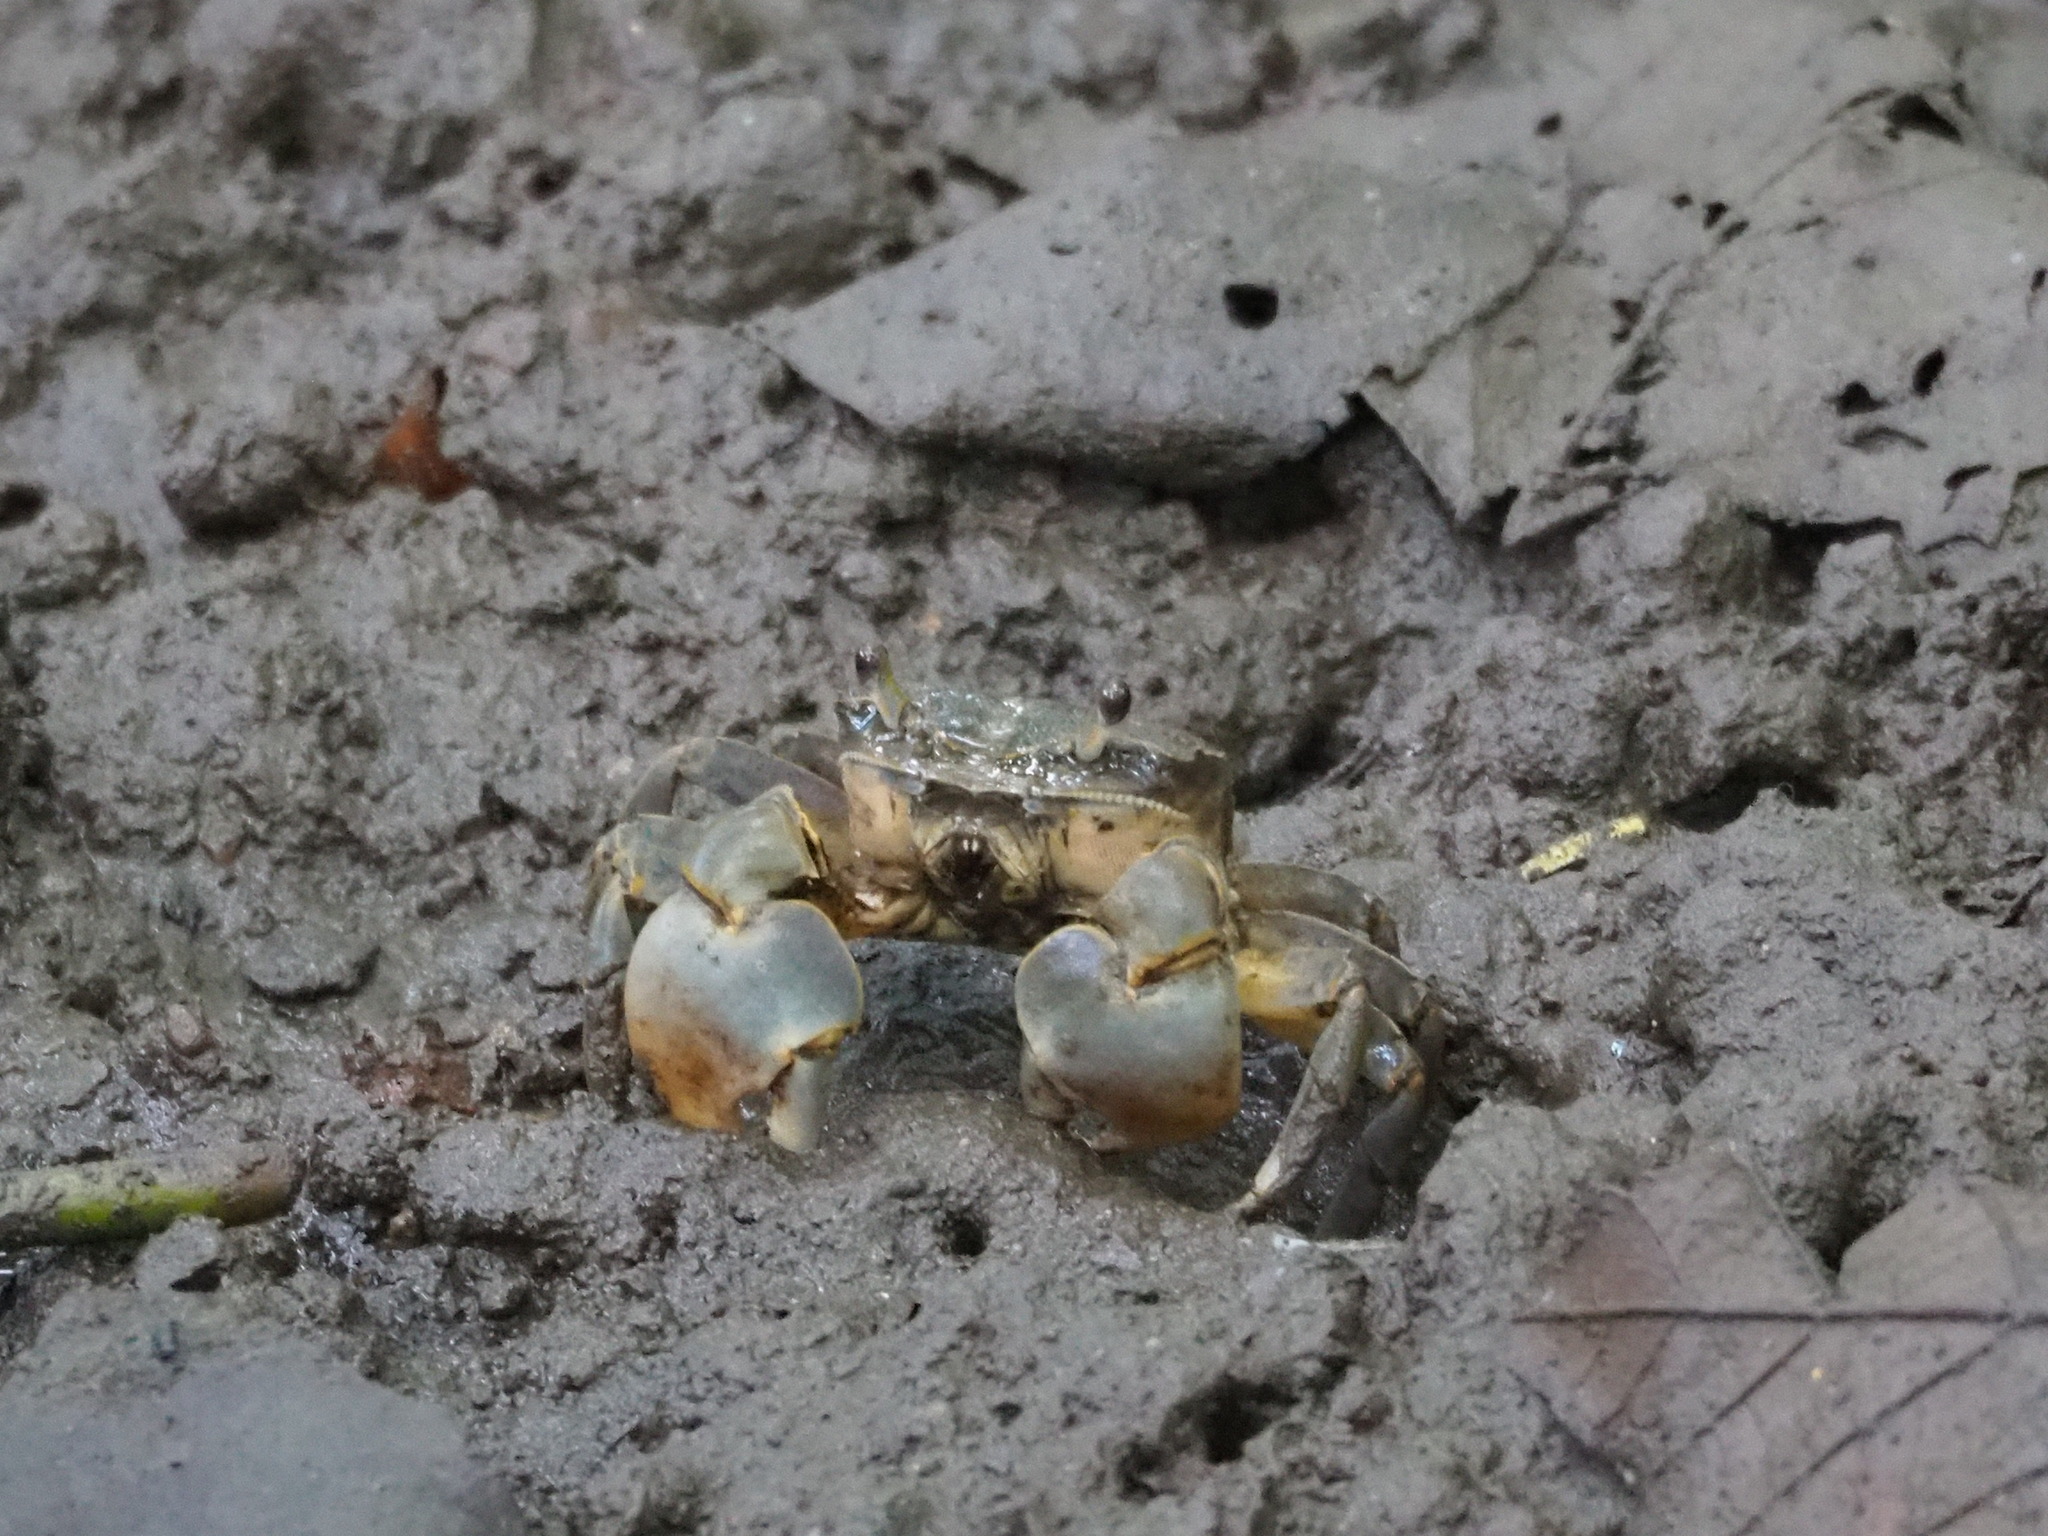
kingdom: Animalia
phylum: Arthropoda
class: Malacostraca
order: Decapoda
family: Varunidae
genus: Helice
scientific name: Helice formosensis
